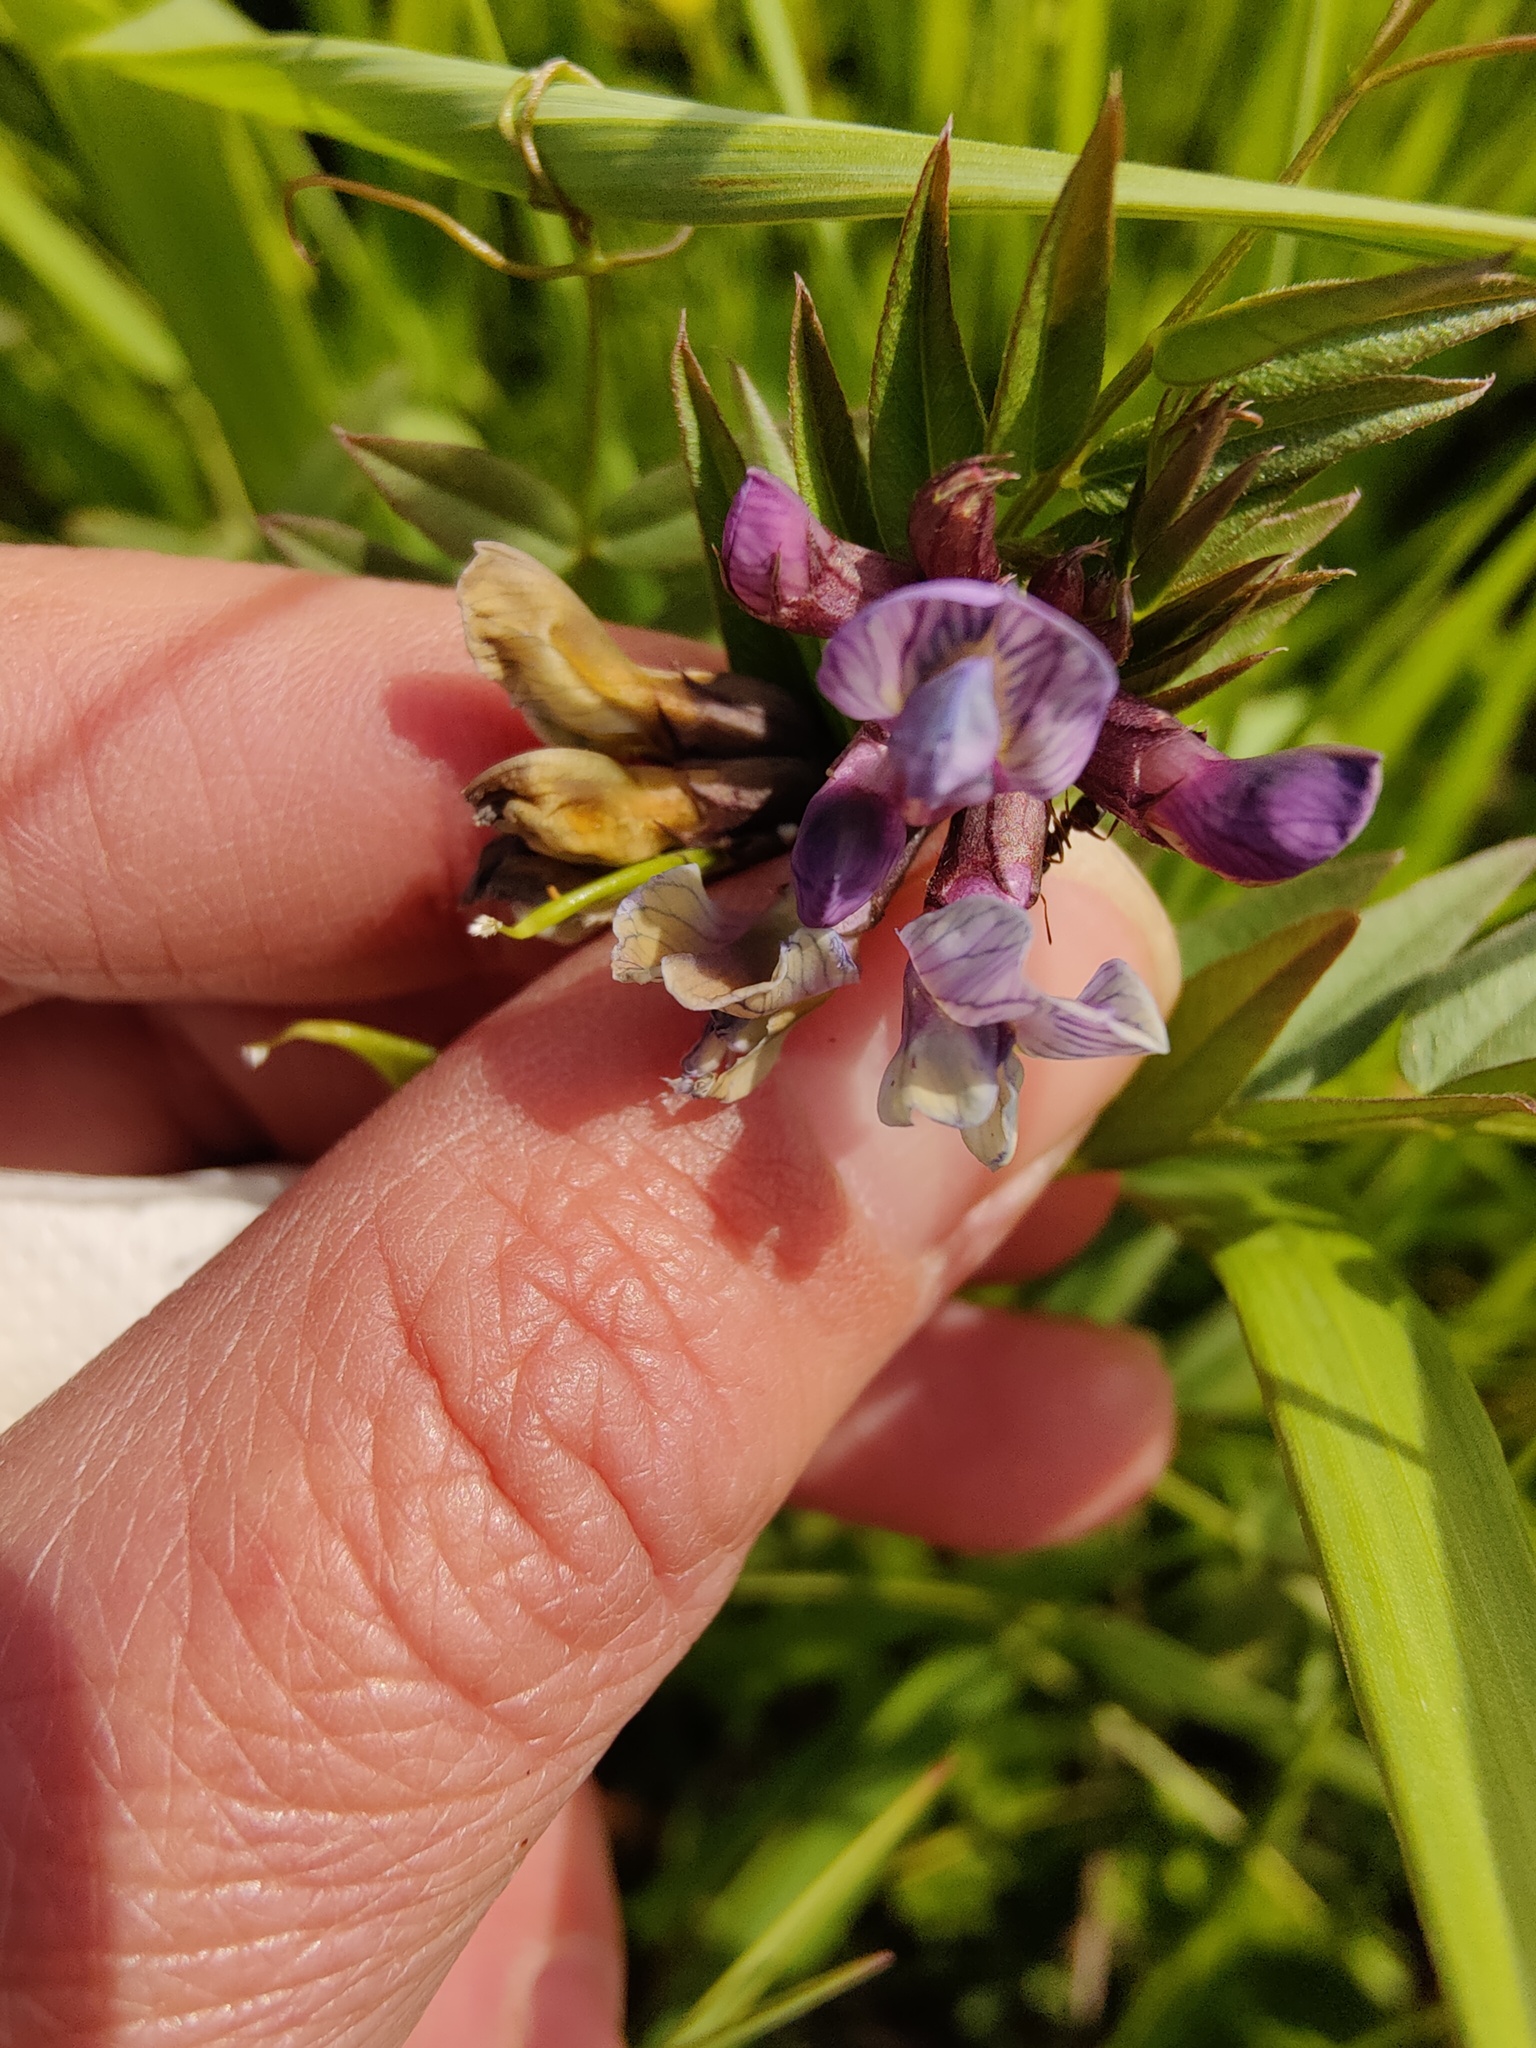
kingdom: Plantae
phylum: Tracheophyta
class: Magnoliopsida
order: Fabales
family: Fabaceae
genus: Vicia
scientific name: Vicia sepium
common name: Bush vetch
